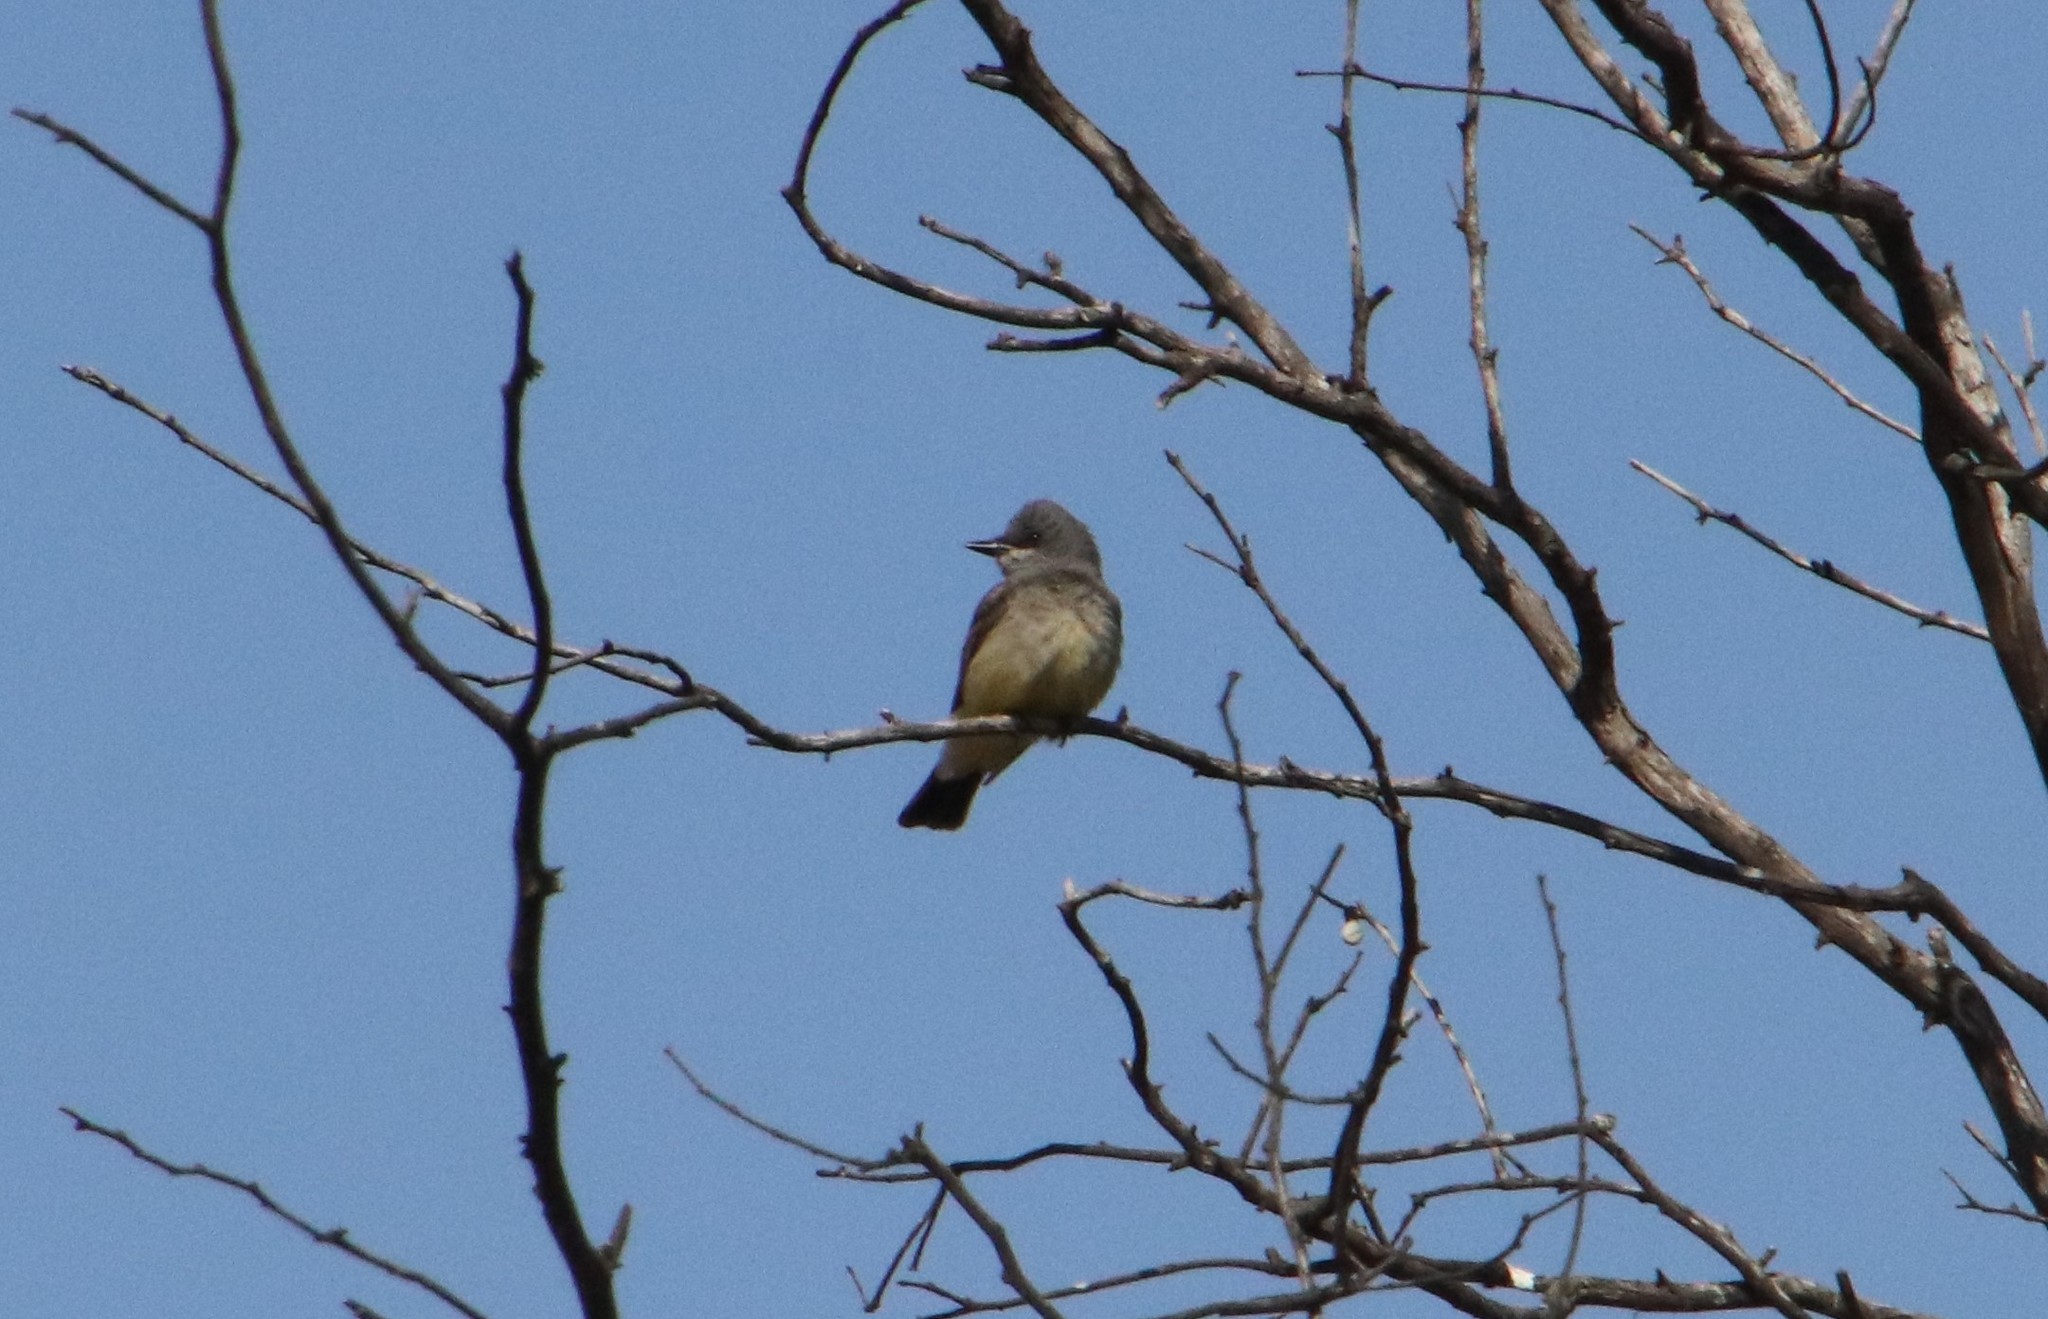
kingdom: Animalia
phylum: Chordata
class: Aves
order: Passeriformes
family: Tyrannidae
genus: Tyrannus
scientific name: Tyrannus vociferans
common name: Cassin's kingbird
